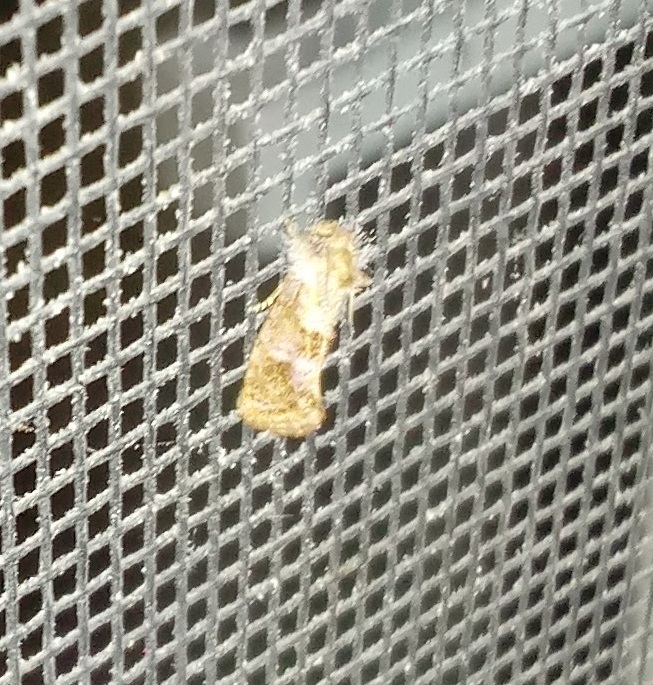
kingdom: Animalia
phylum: Arthropoda
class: Insecta
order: Lepidoptera
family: Tineidae
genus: Acrolophus
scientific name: Acrolophus panamae
